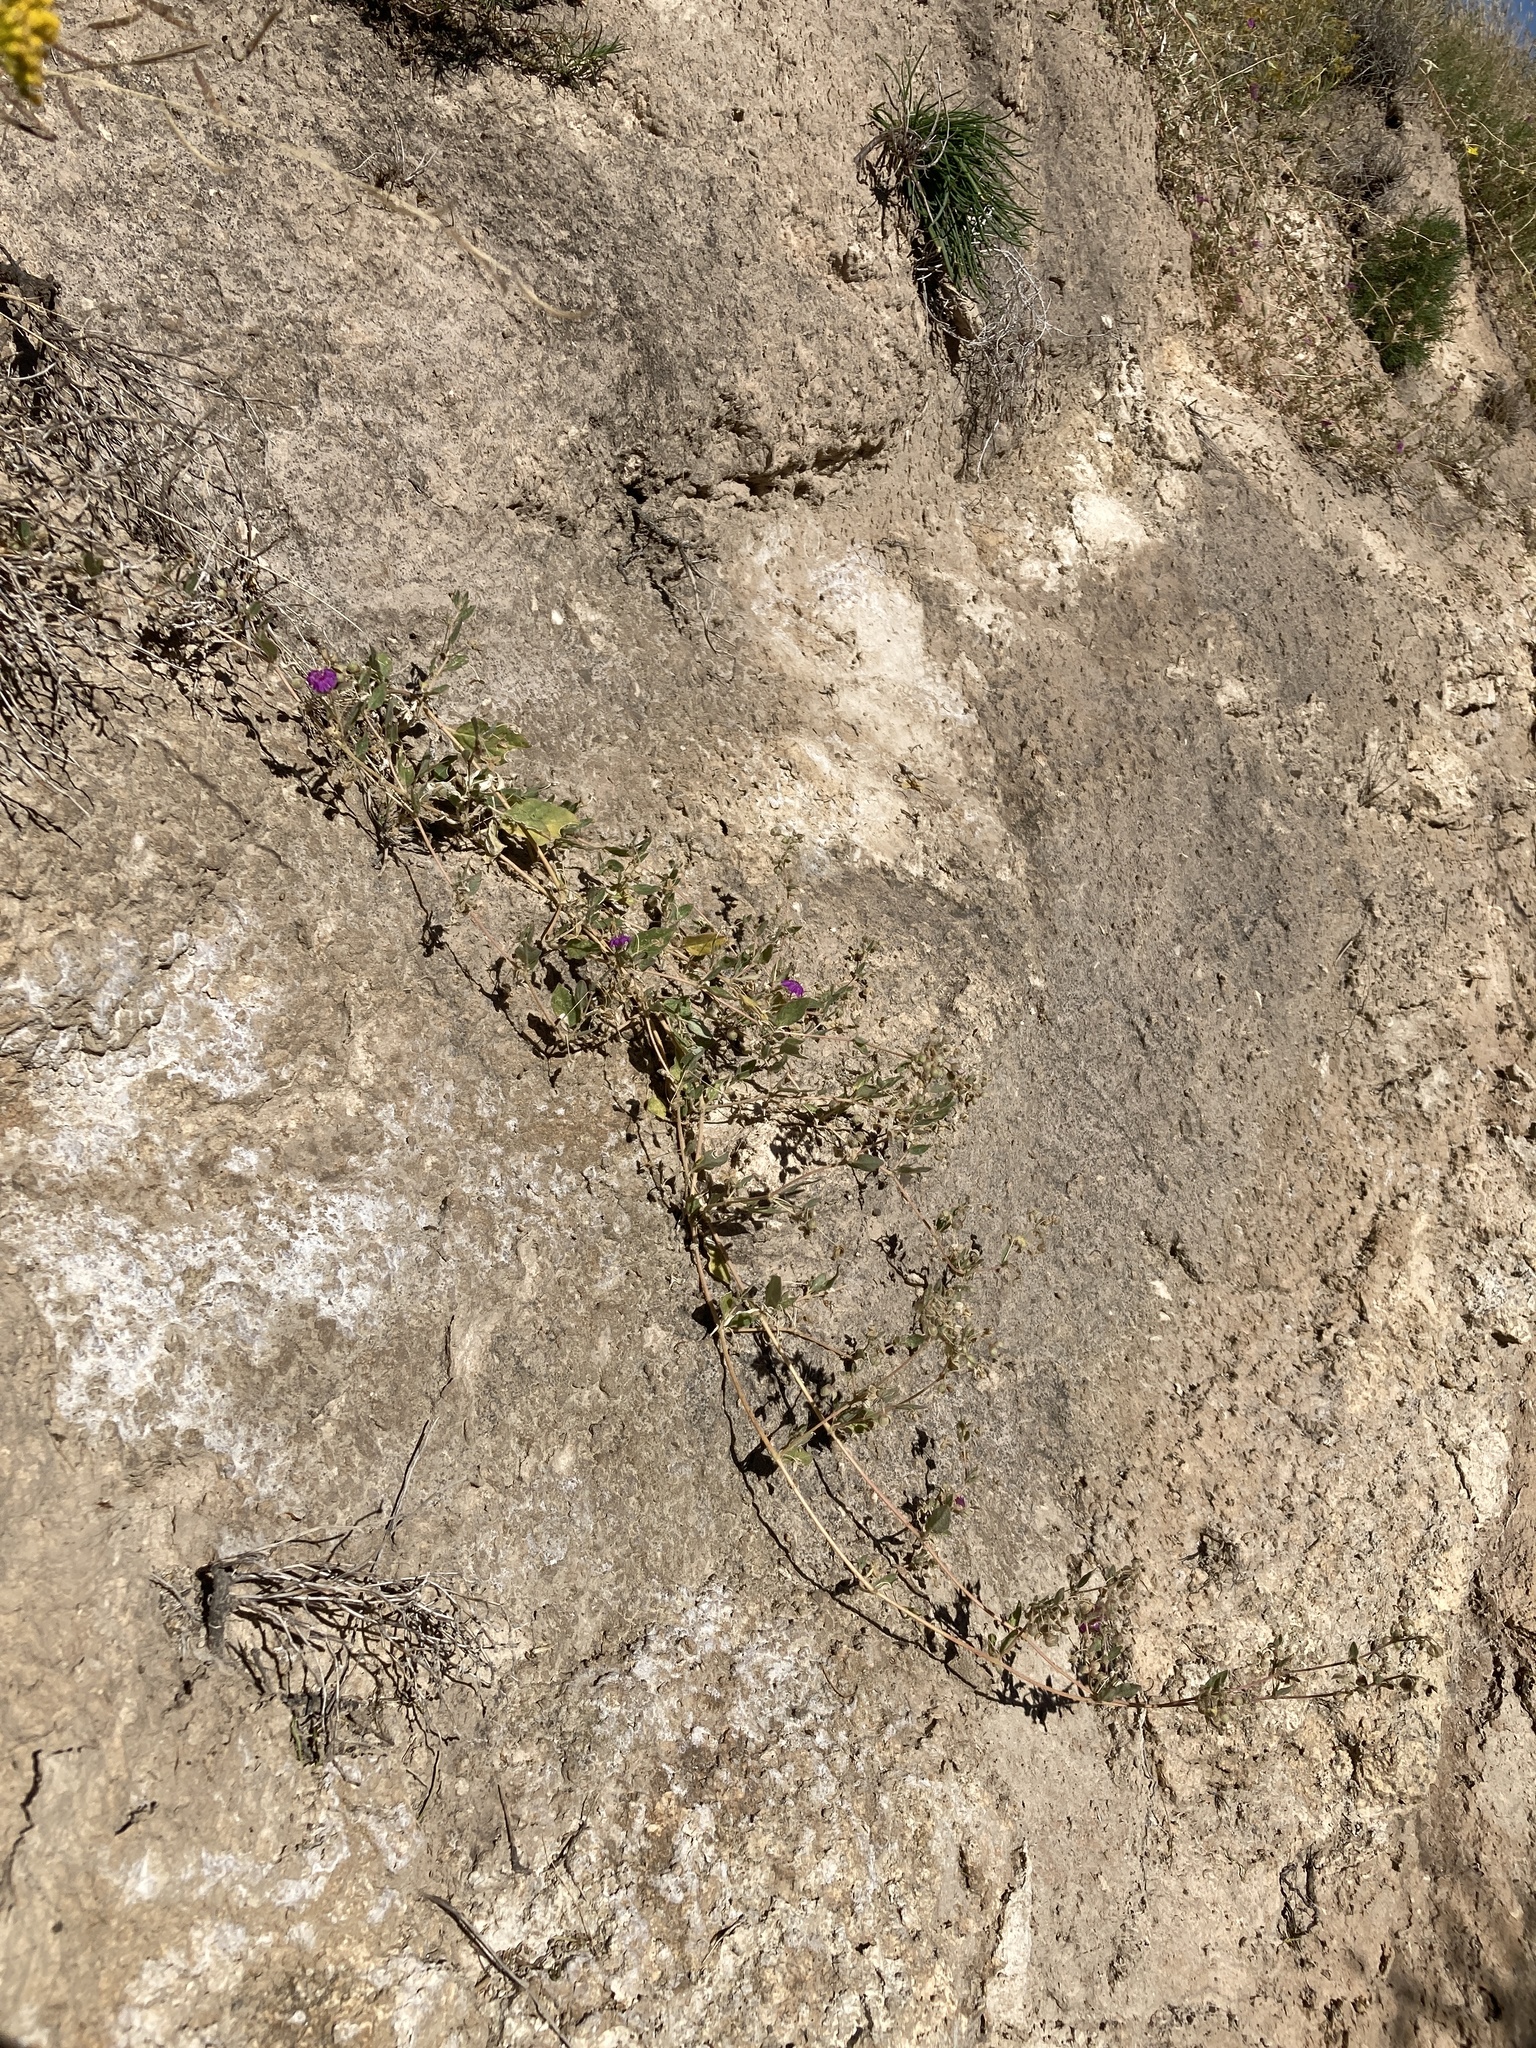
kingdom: Plantae
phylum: Tracheophyta
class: Magnoliopsida
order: Caryophyllales
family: Nyctaginaceae
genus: Allionia
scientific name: Allionia incarnata
